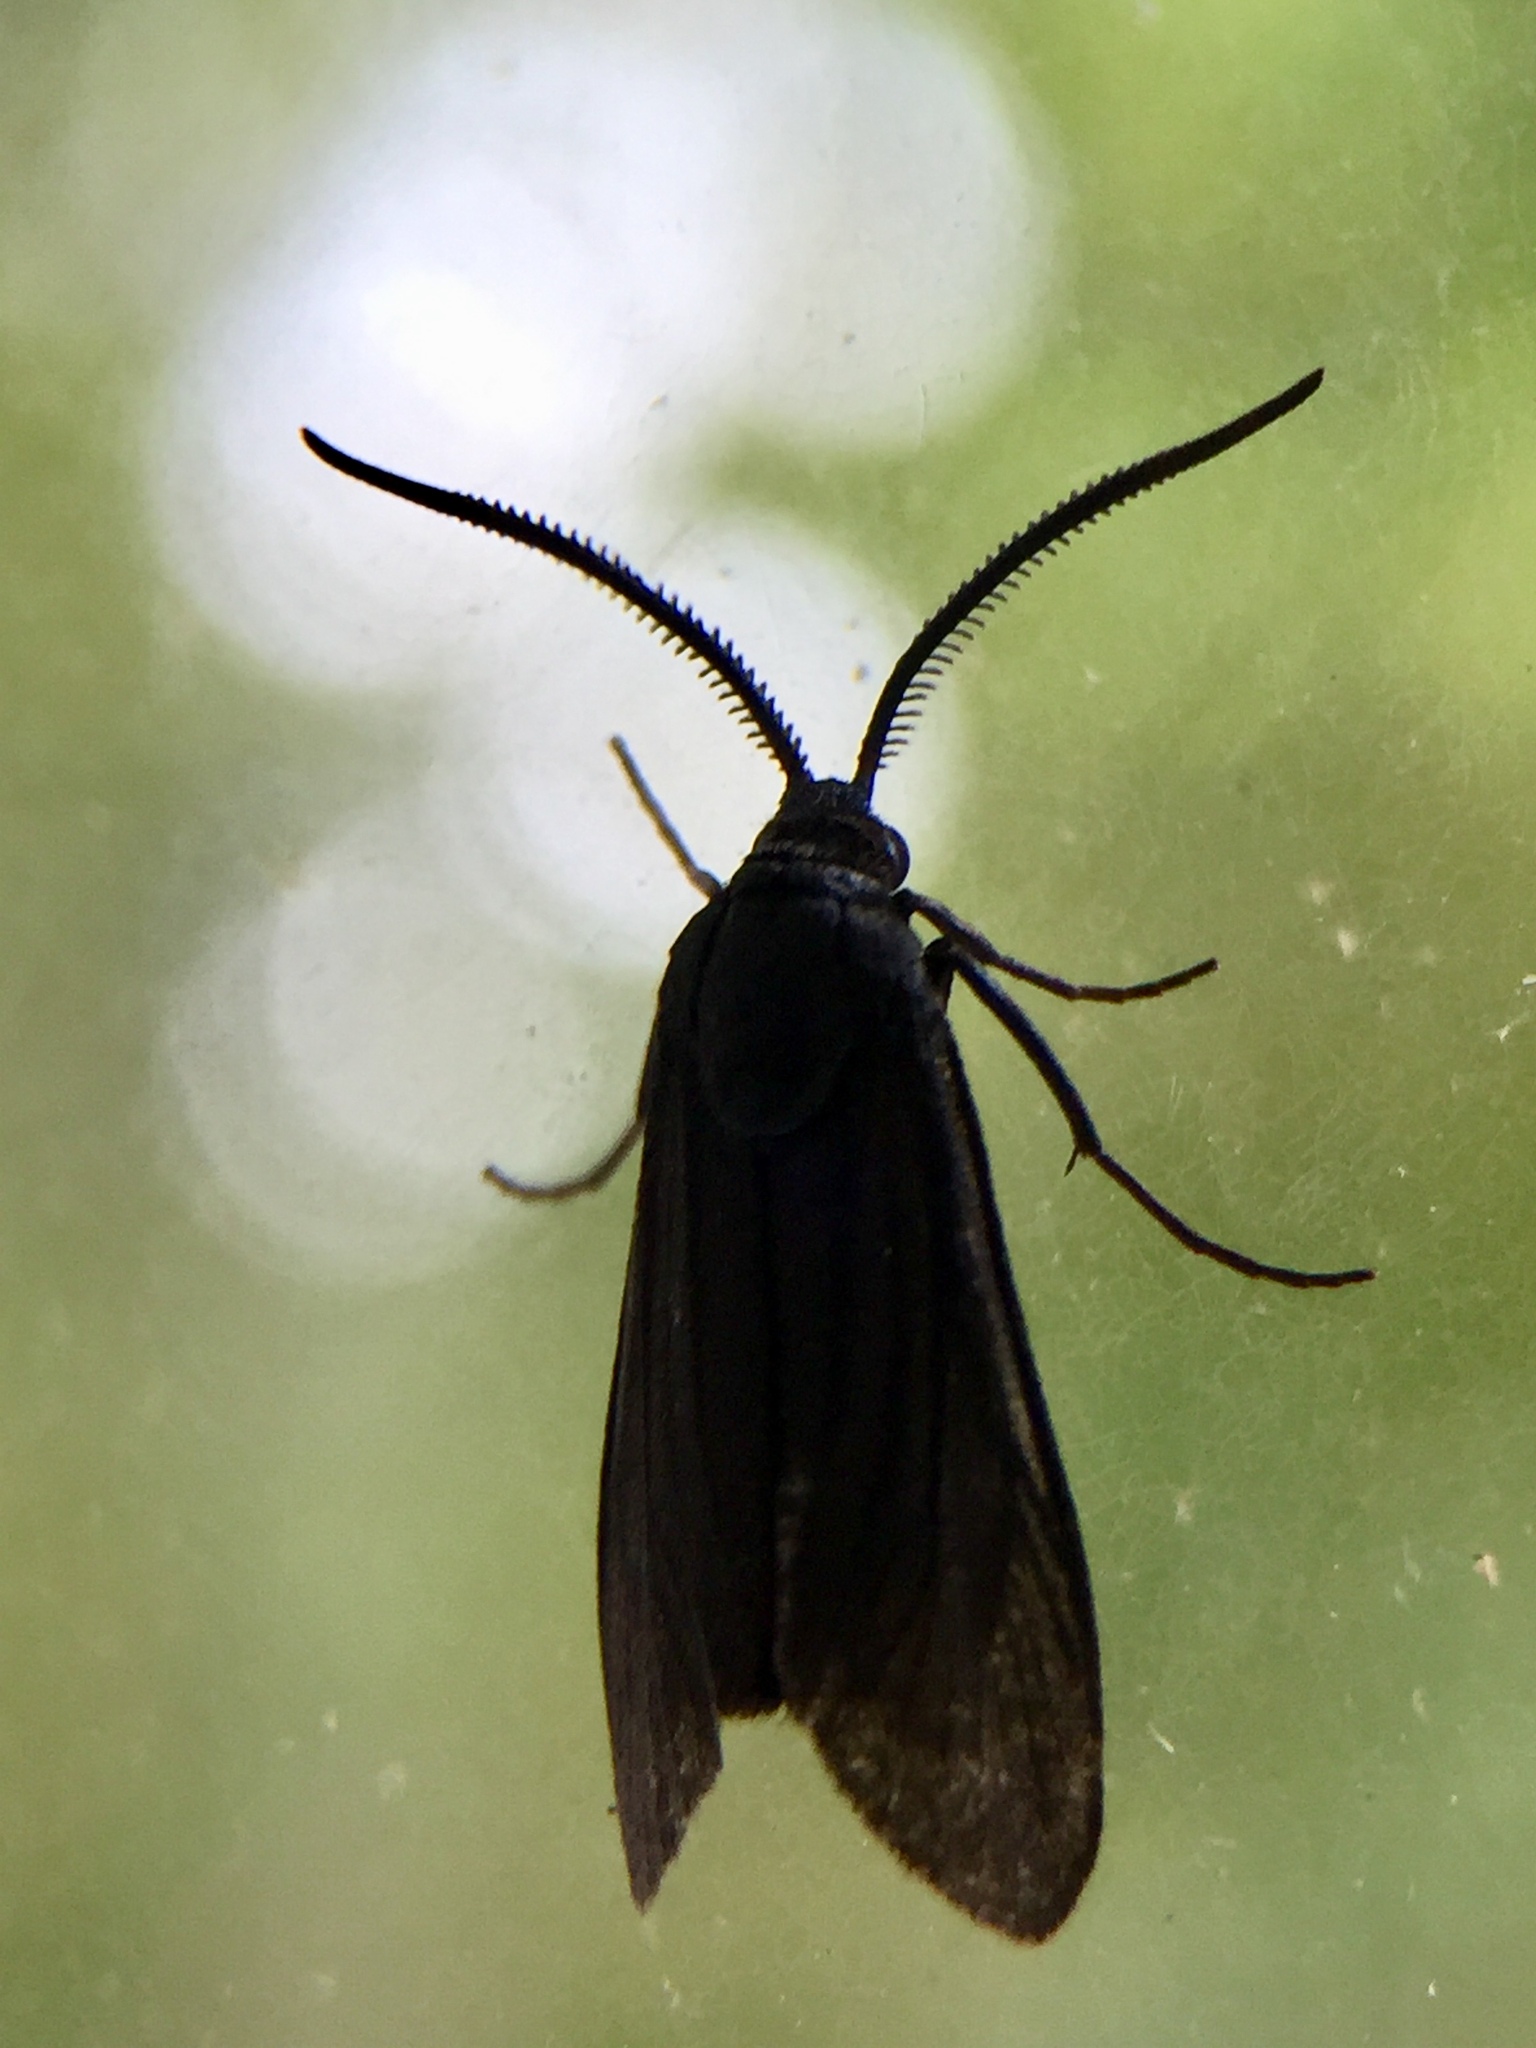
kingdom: Animalia
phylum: Arthropoda
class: Insecta
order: Lepidoptera
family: Zygaenidae
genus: Artona
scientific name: Artona martini
